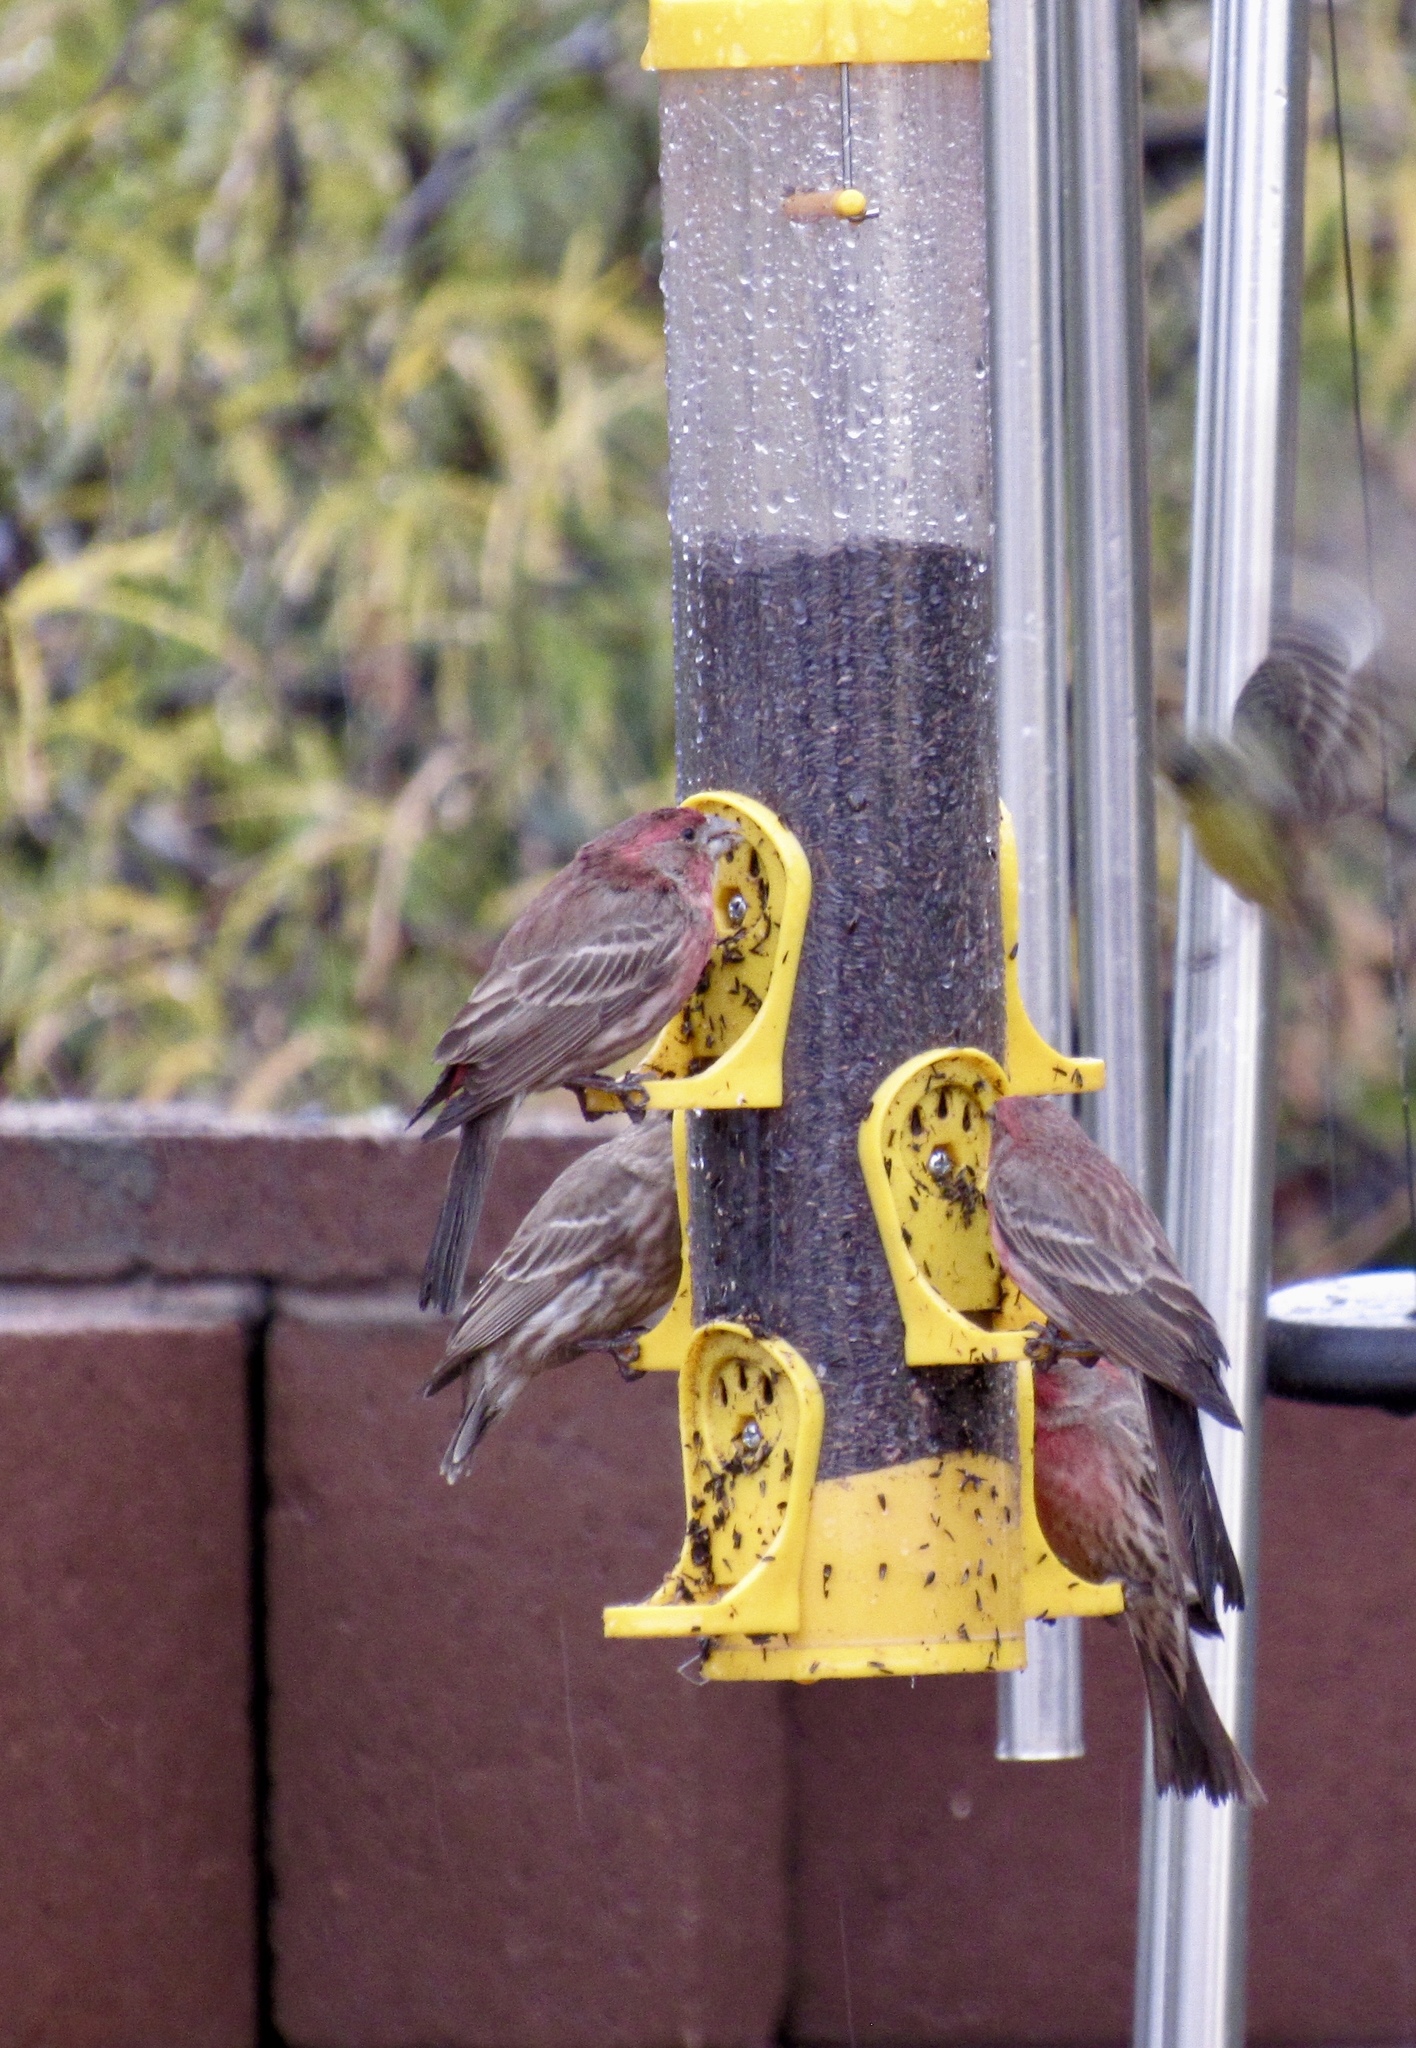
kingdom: Animalia
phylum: Chordata
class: Aves
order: Passeriformes
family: Fringillidae
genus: Haemorhous
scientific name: Haemorhous mexicanus
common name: House finch
